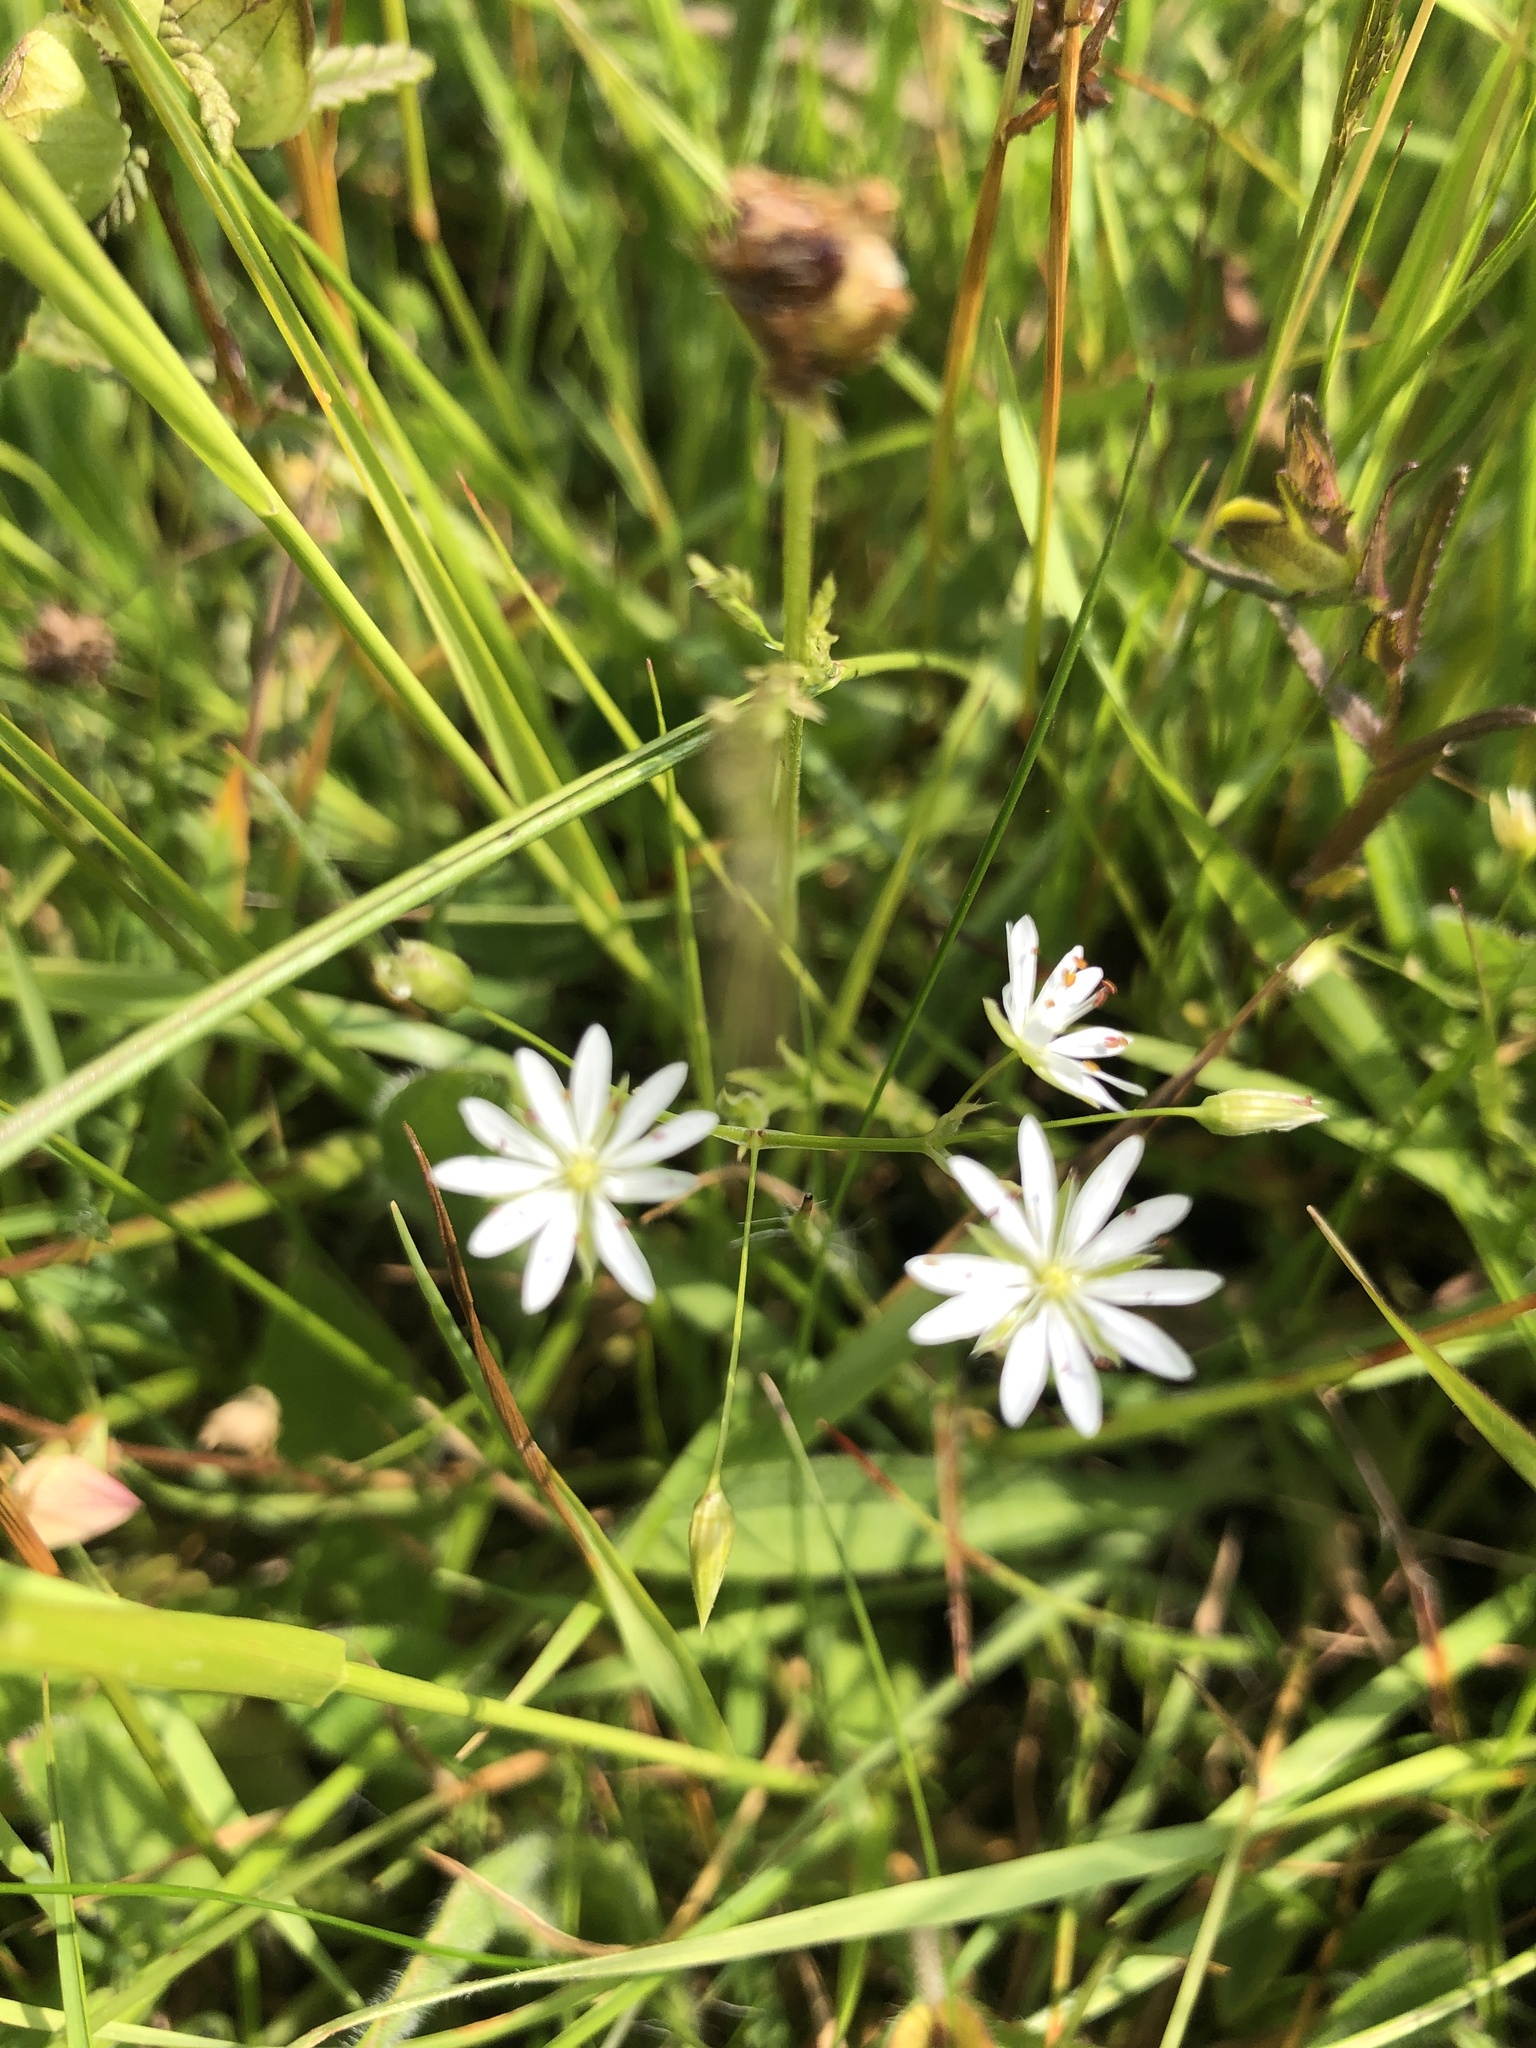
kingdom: Plantae
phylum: Tracheophyta
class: Magnoliopsida
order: Caryophyllales
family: Caryophyllaceae
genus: Stellaria
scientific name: Stellaria graminea
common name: Grass-like starwort
